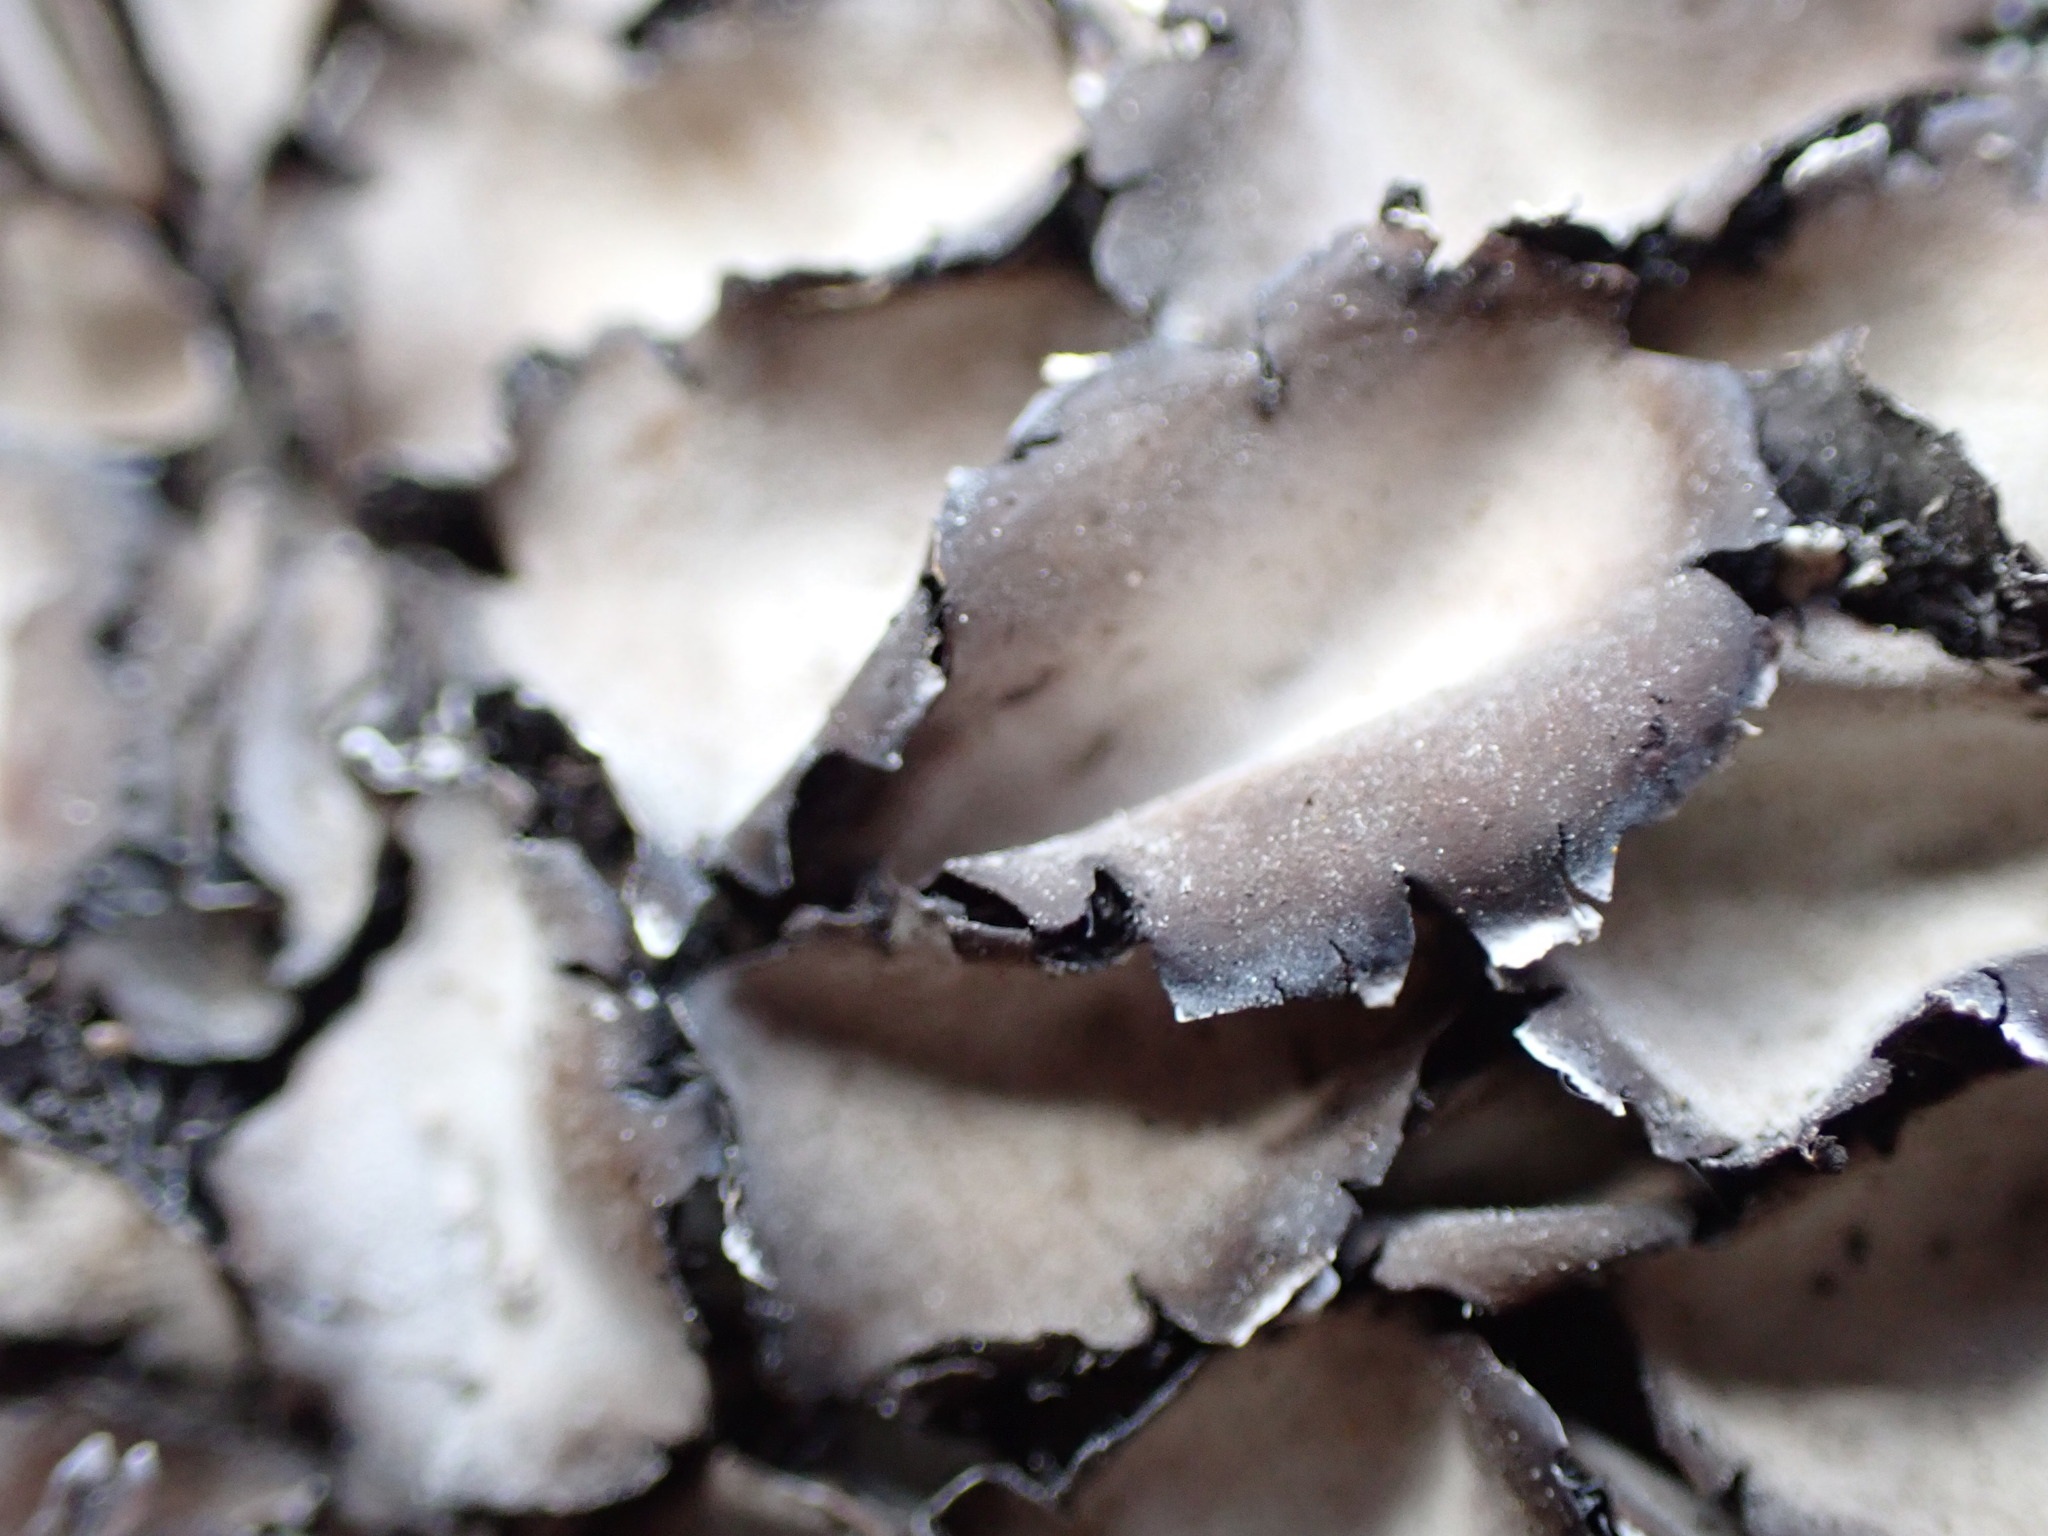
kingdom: Fungi
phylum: Ascomycota
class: Lecanoromycetes
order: Umbilicariales
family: Umbilicariaceae
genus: Umbilicaria
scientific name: Umbilicaria americana
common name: Frosted rock tripe
